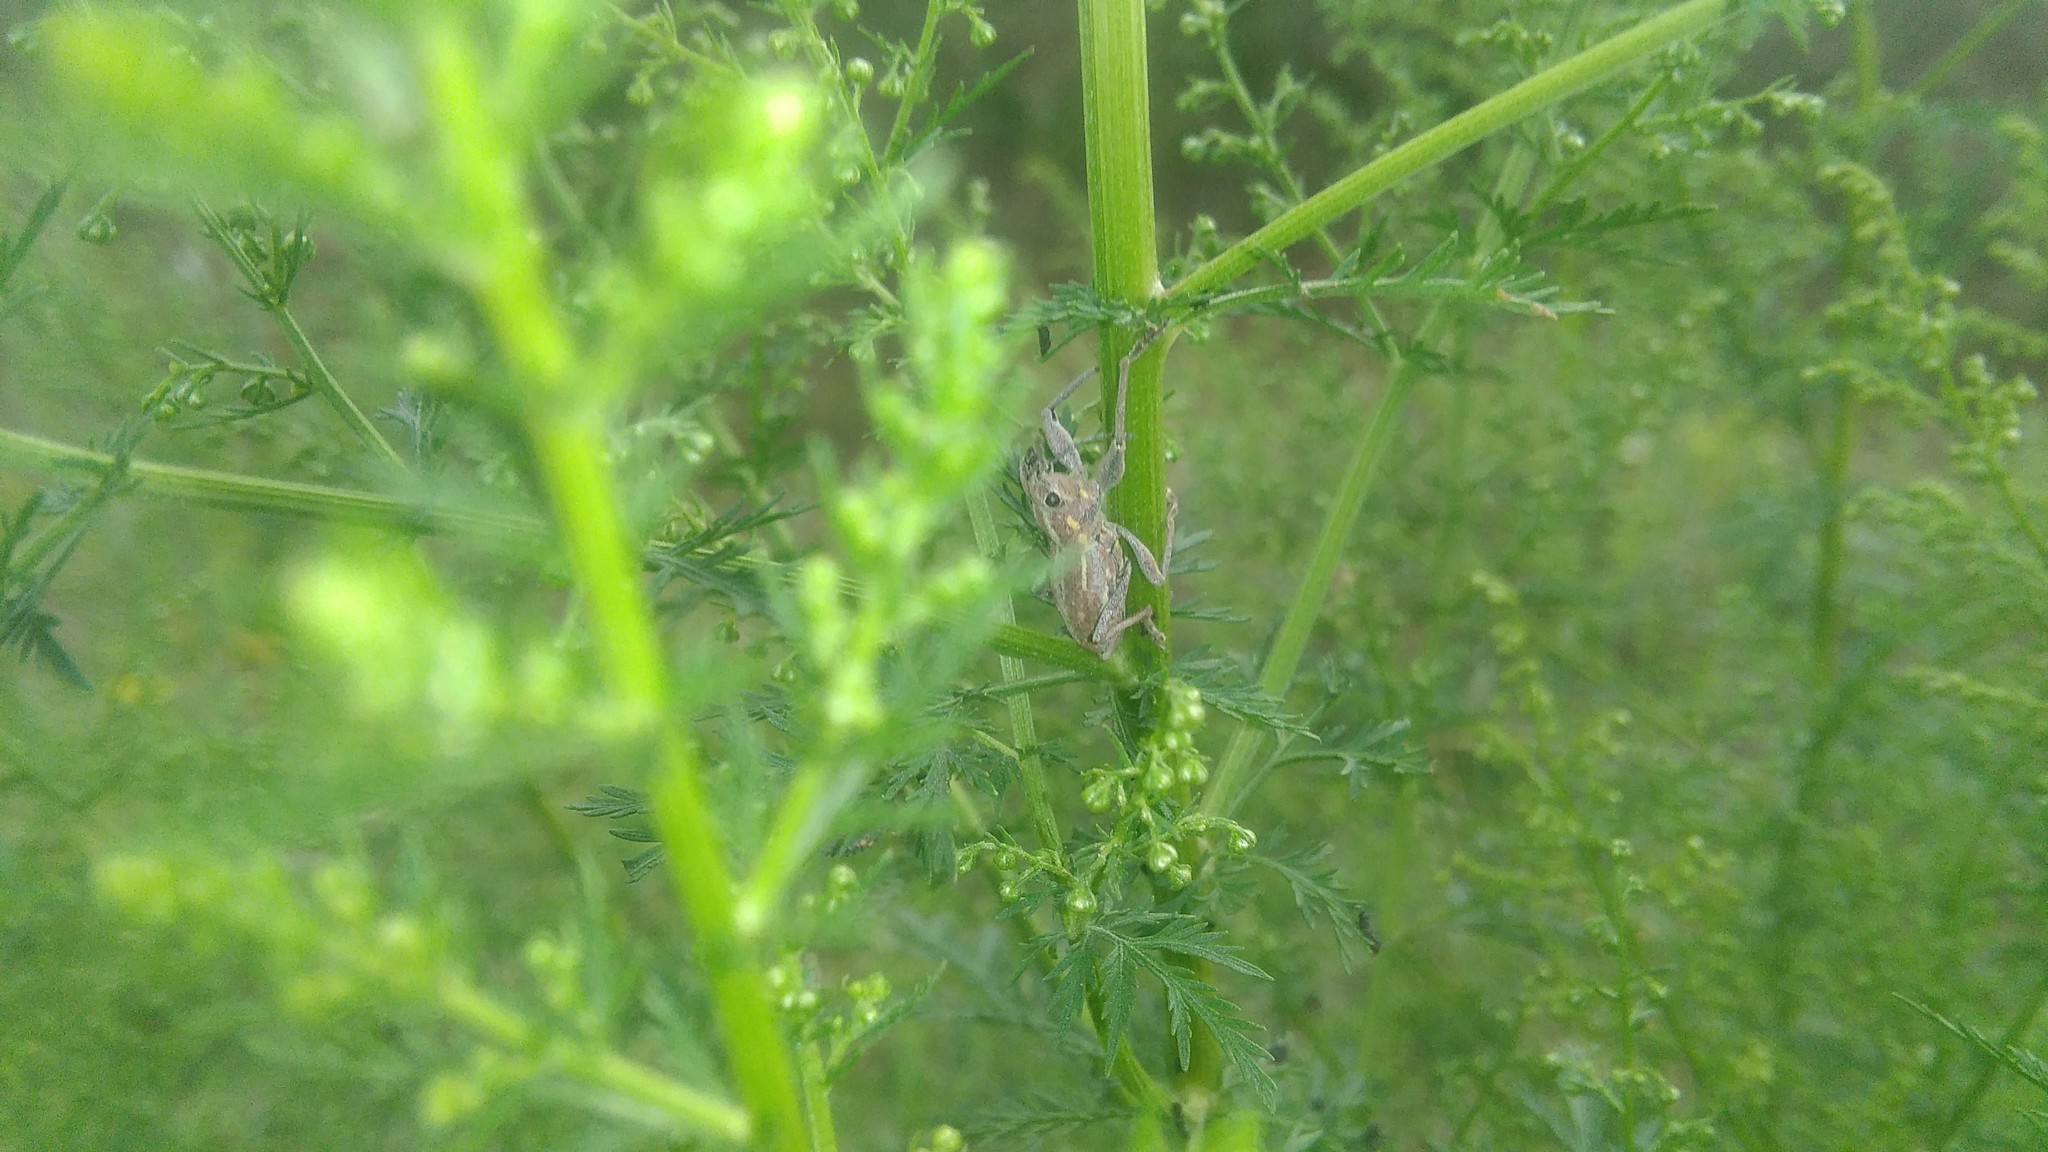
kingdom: Animalia
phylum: Arthropoda
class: Insecta
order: Coleoptera
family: Curculionidae
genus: Naupactus
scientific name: Naupactus xanthographus
